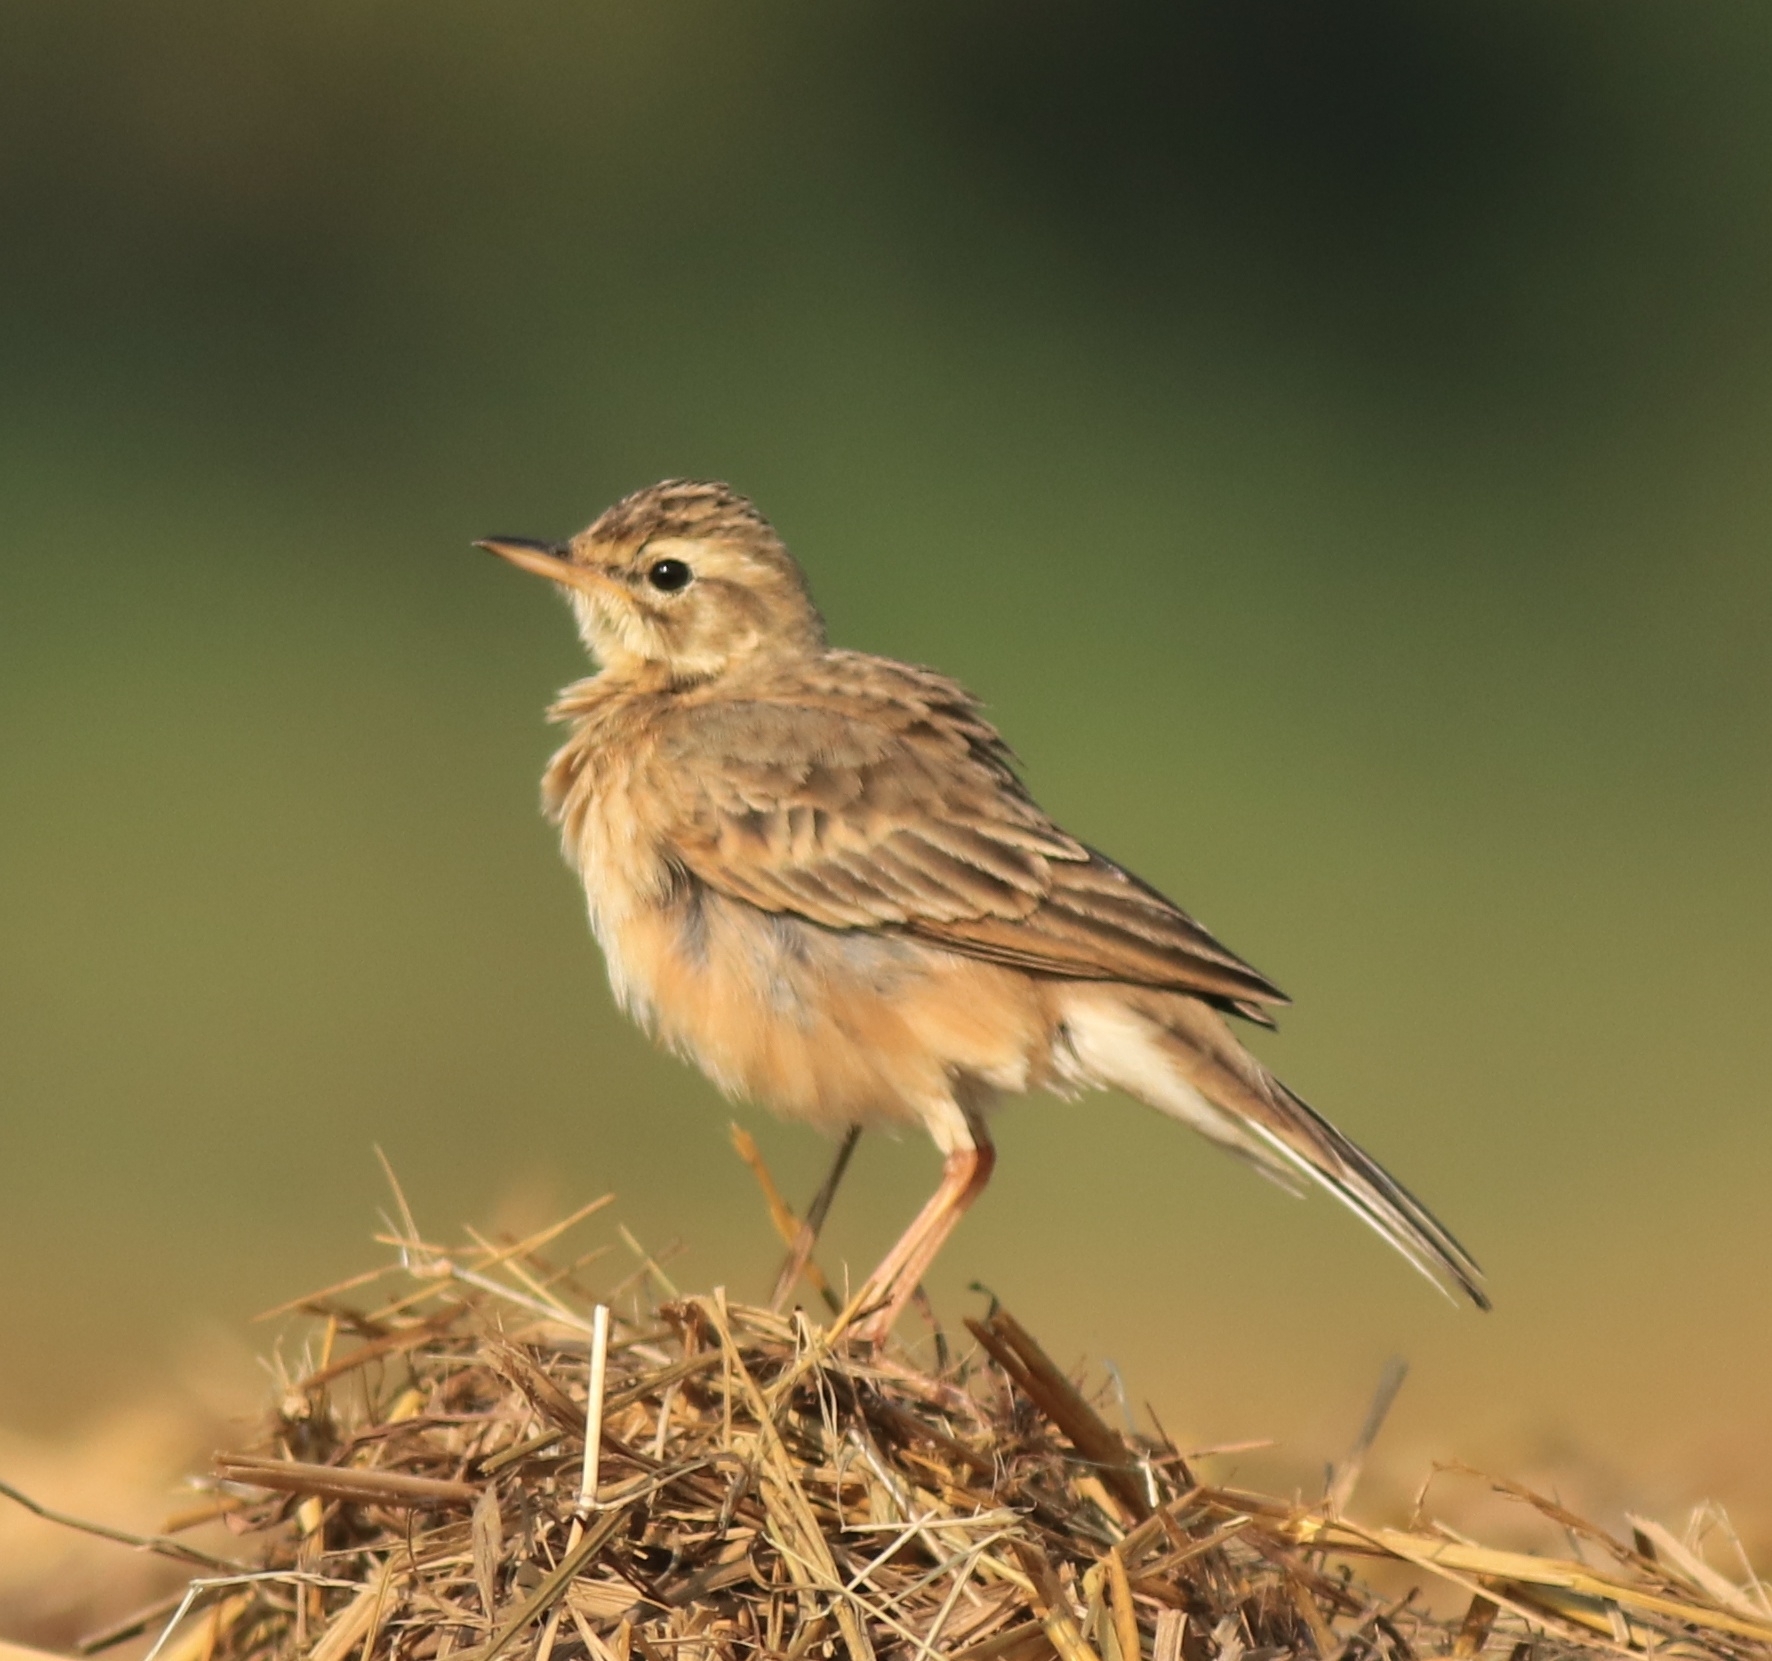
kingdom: Animalia
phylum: Chordata
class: Aves
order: Passeriformes
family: Motacillidae
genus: Anthus
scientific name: Anthus rufulus
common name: Paddyfield pipit
